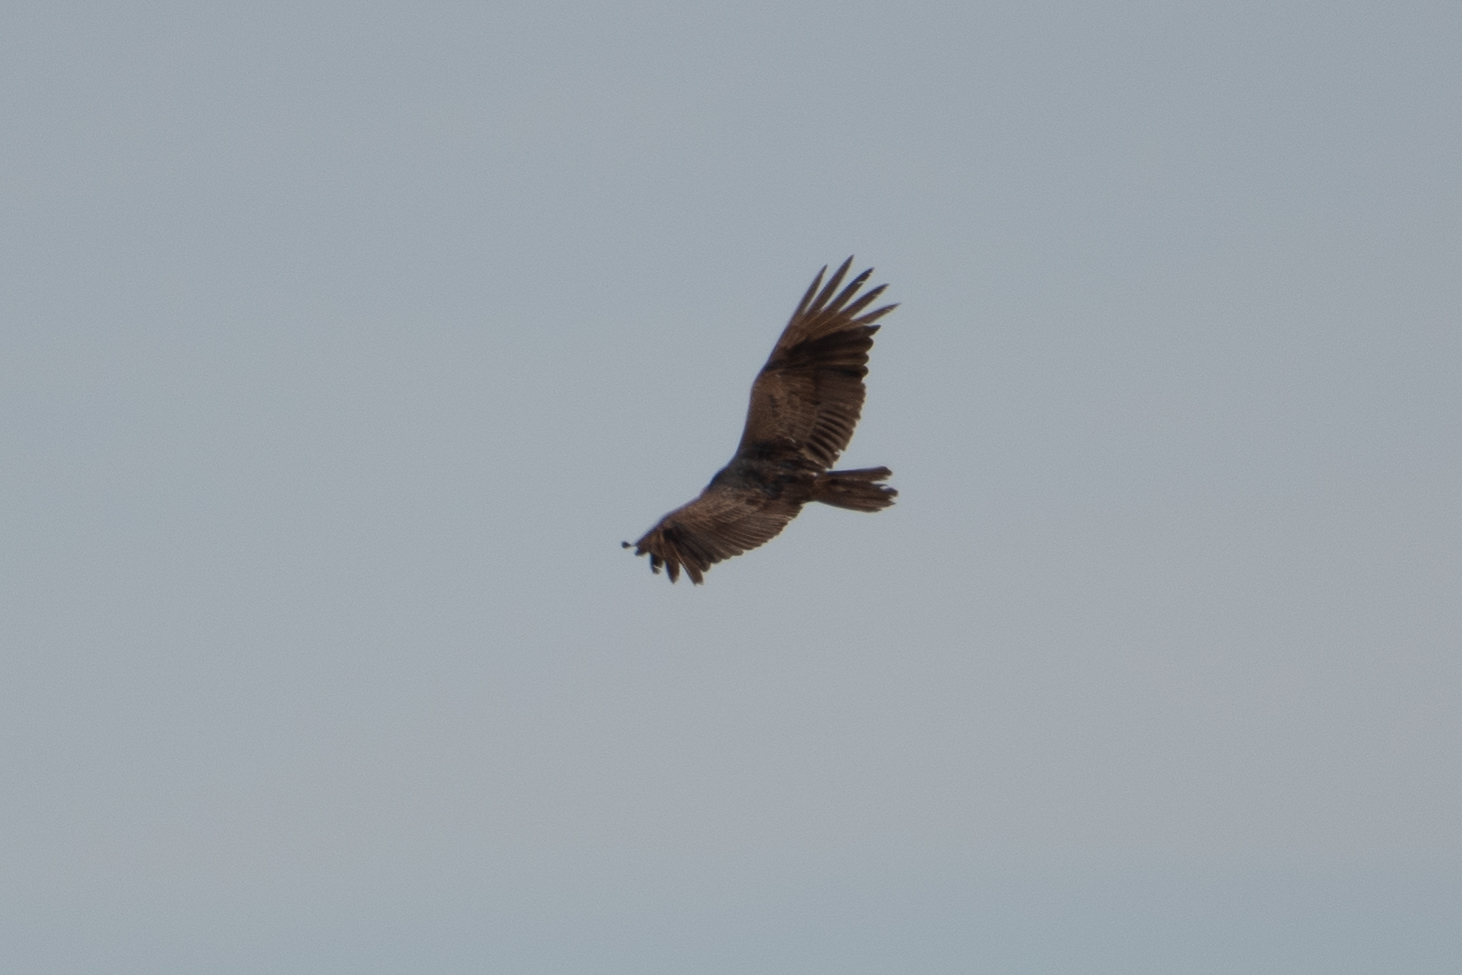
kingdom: Animalia
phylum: Chordata
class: Aves
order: Accipitriformes
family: Cathartidae
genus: Cathartes
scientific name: Cathartes aura
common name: Turkey vulture
